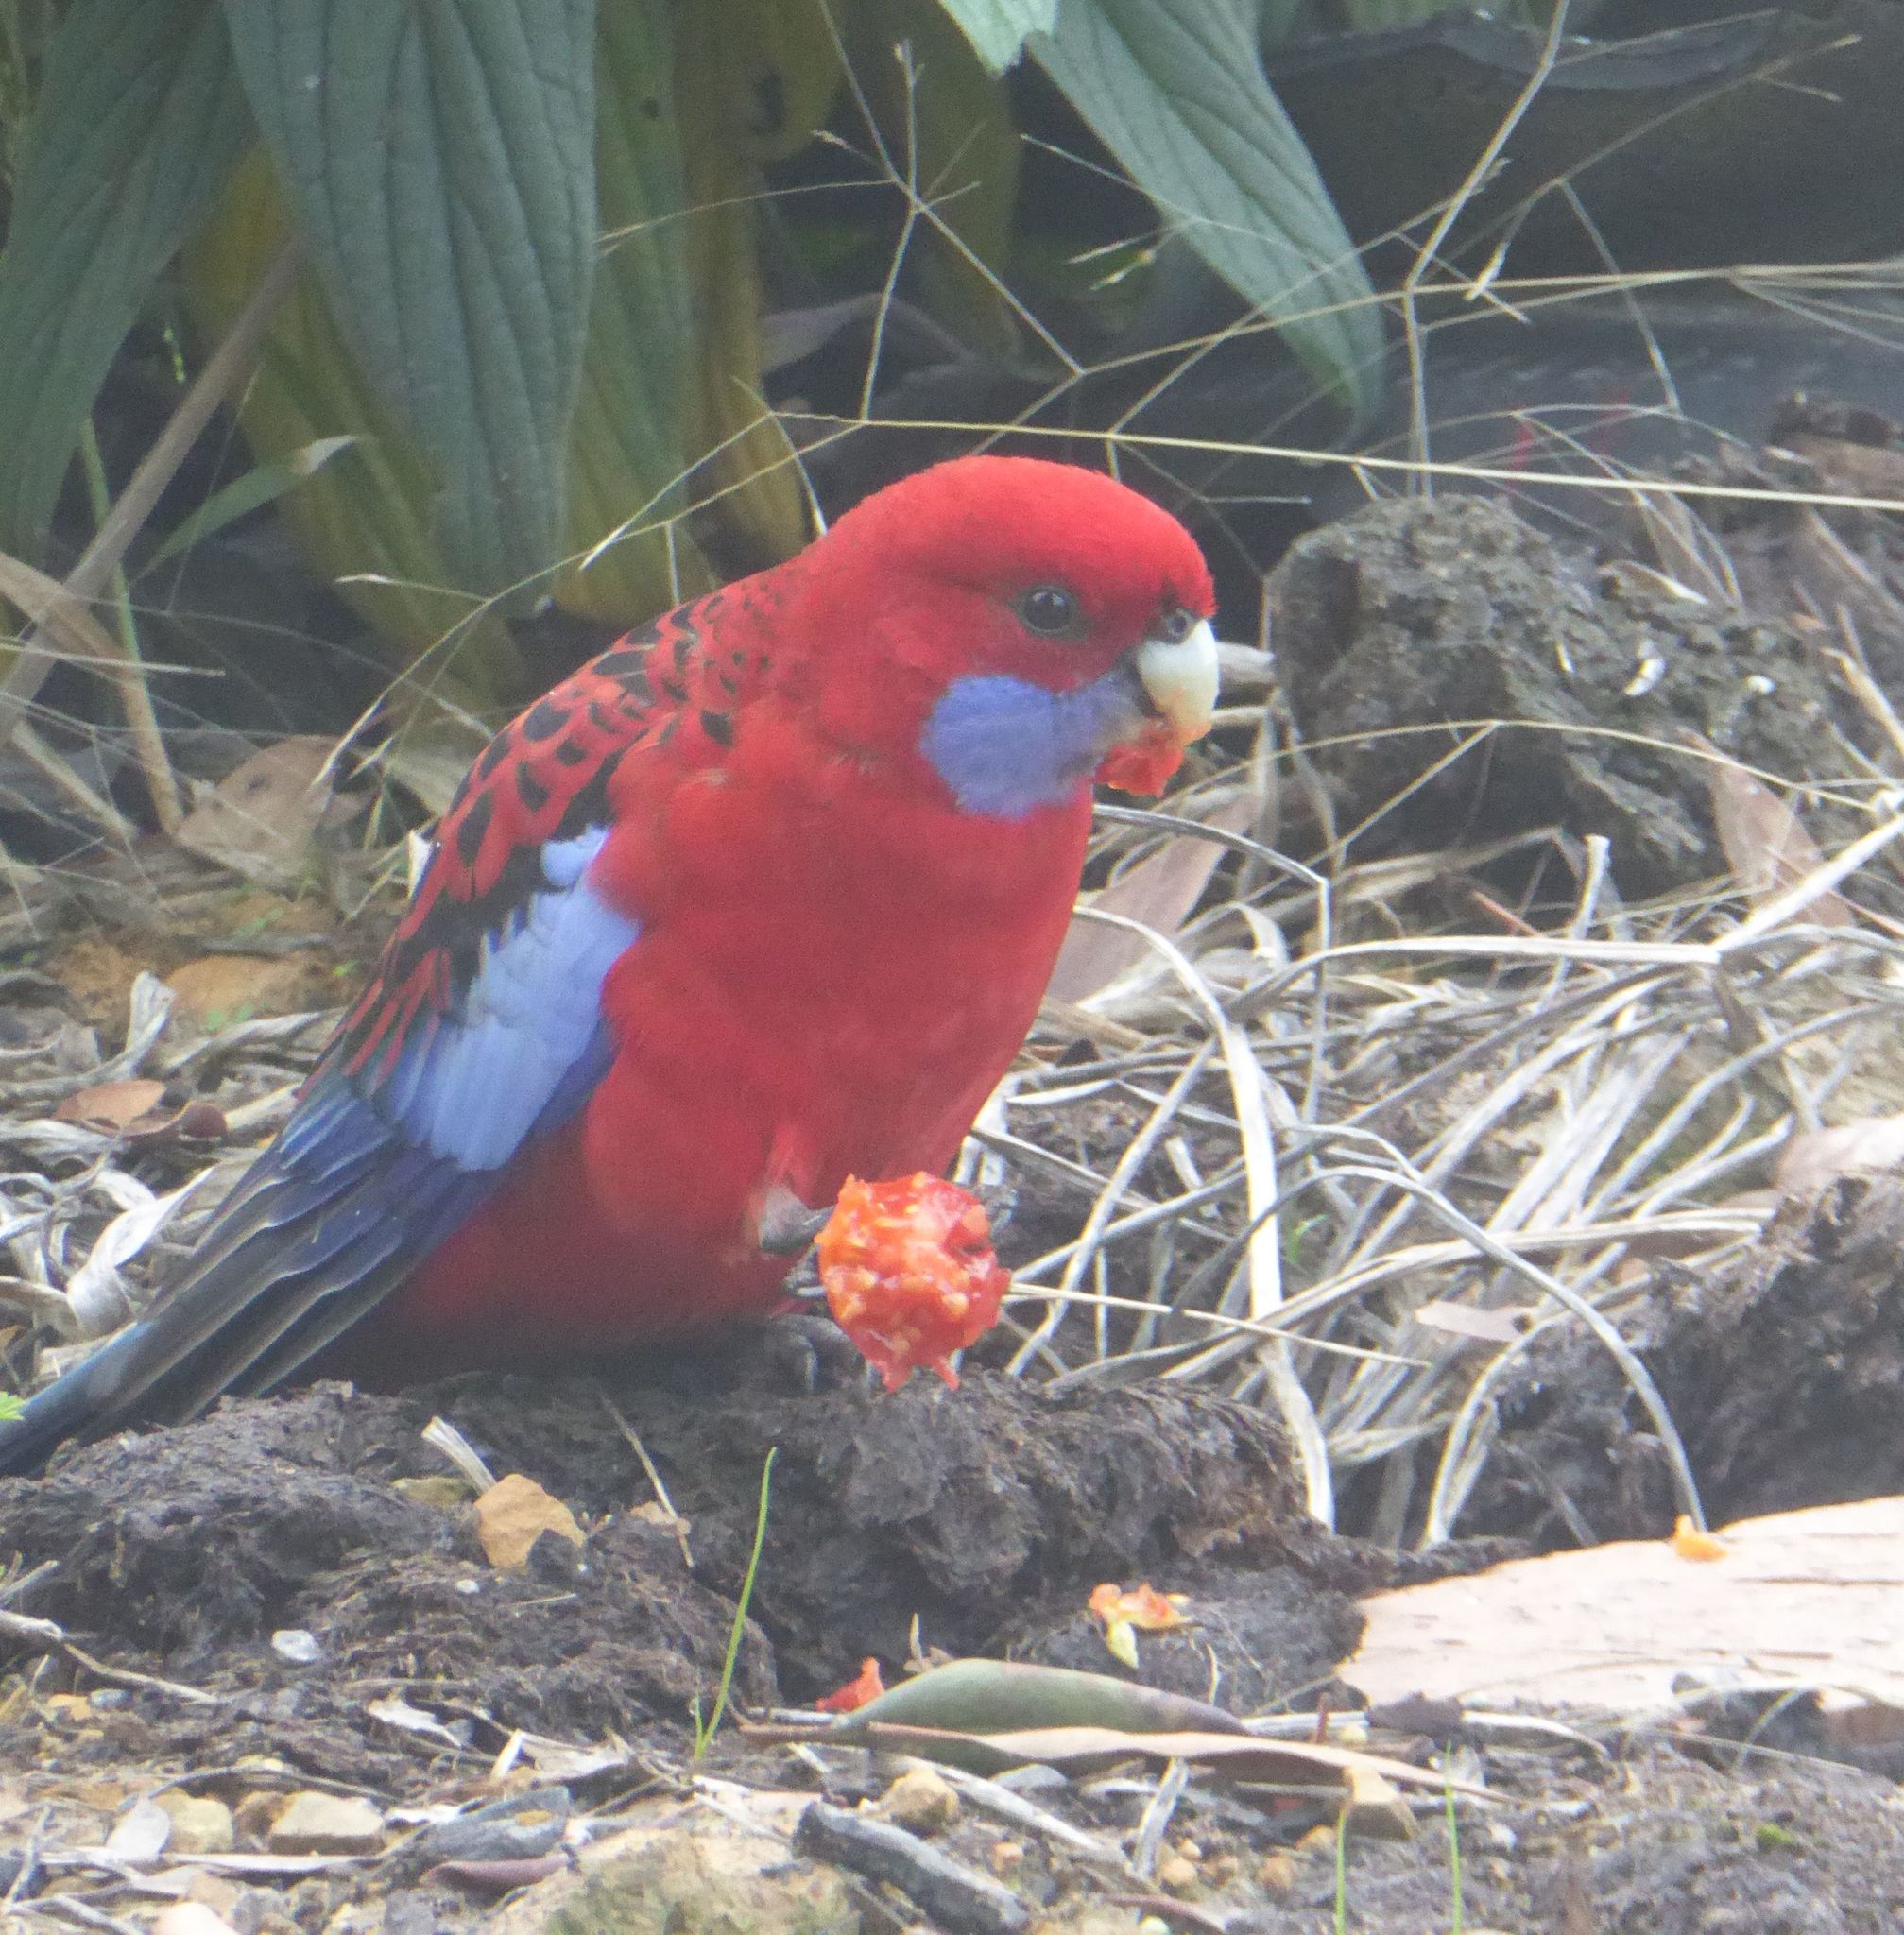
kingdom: Animalia
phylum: Chordata
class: Aves
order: Psittaciformes
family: Psittacidae
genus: Platycercus
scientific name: Platycercus elegans
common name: Crimson rosella
